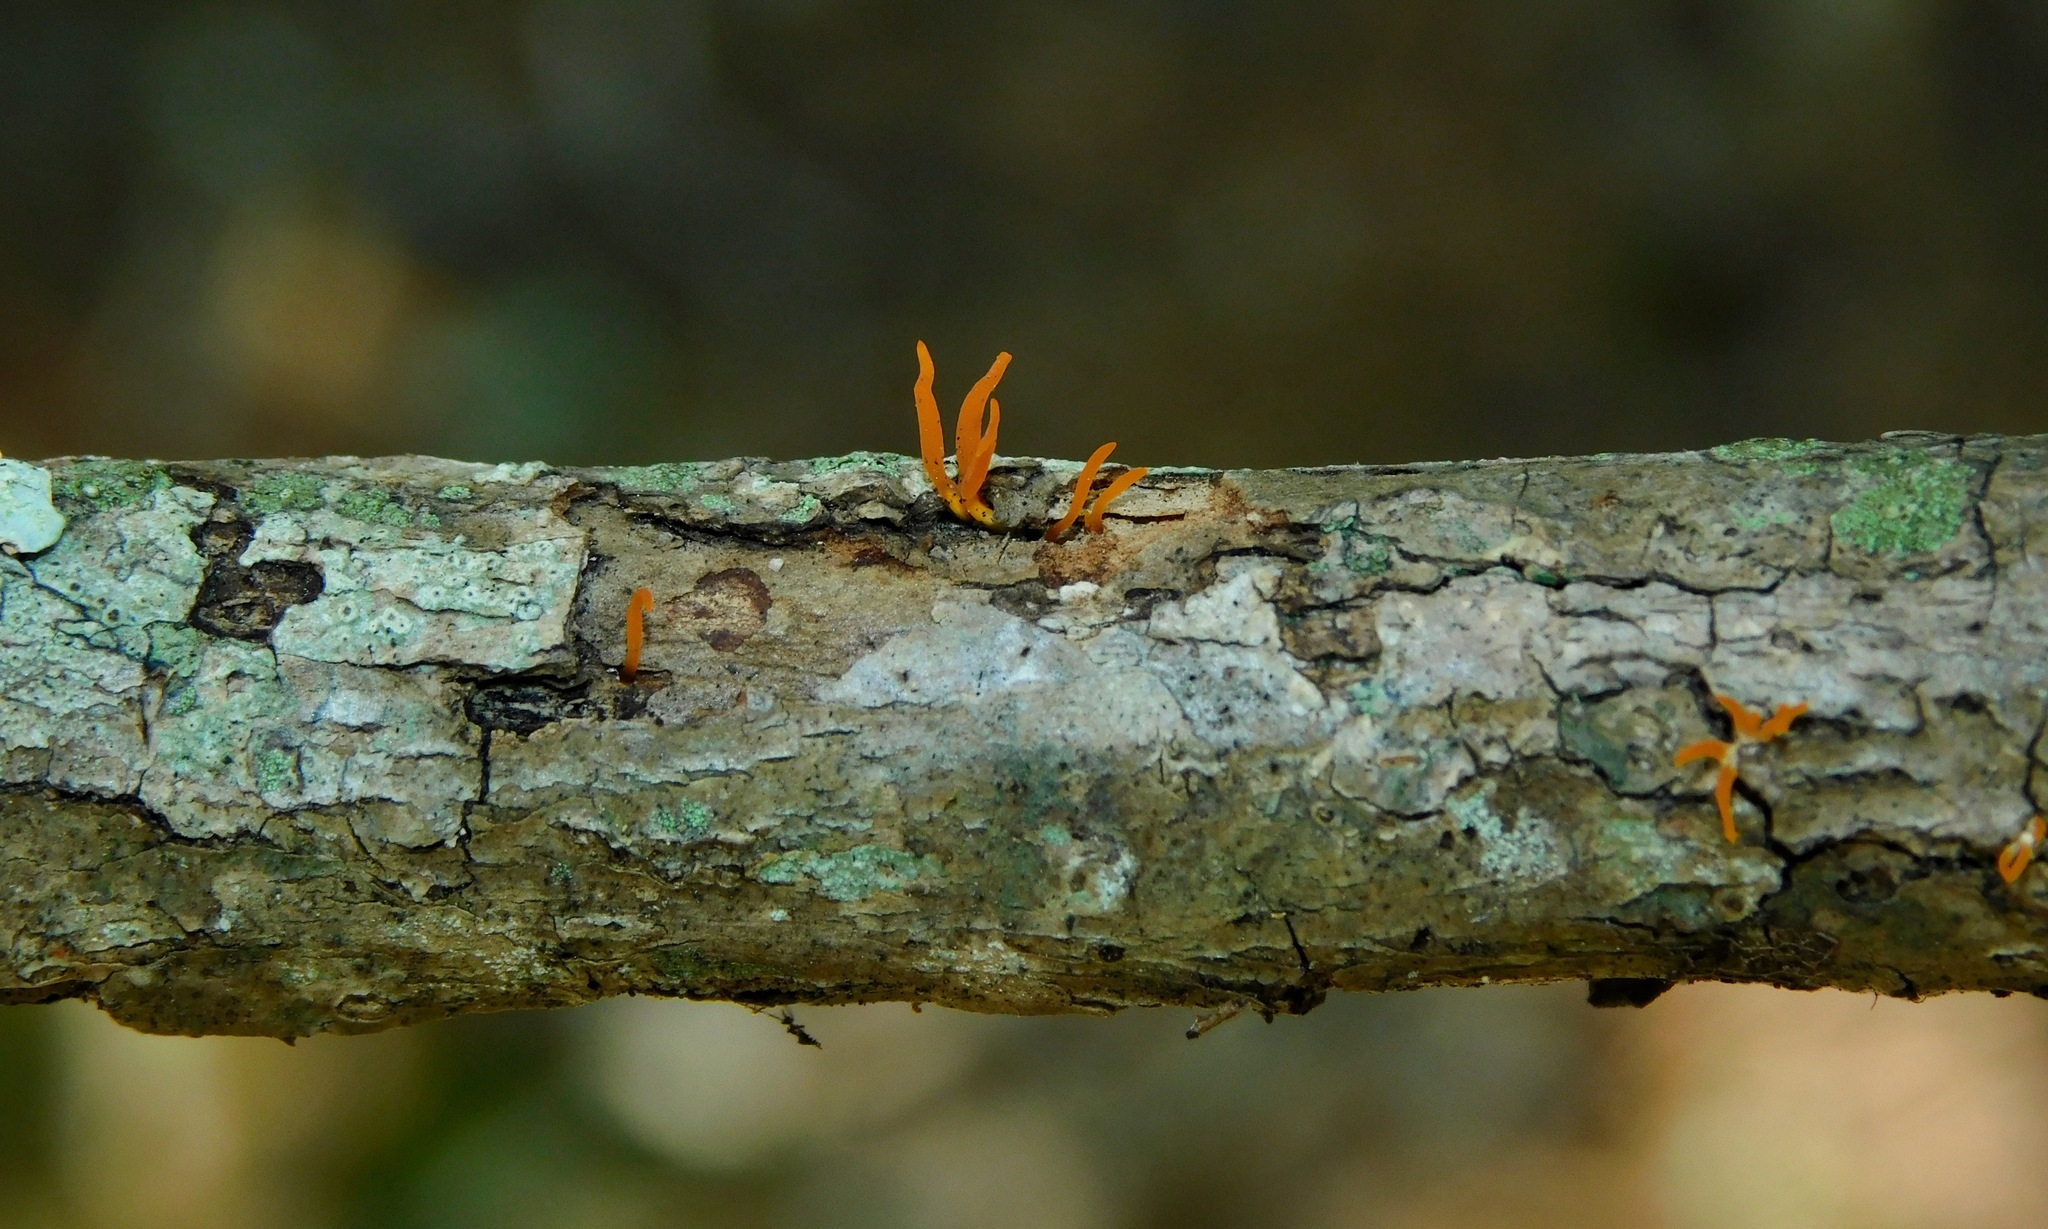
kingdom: Fungi
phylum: Basidiomycota
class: Dacrymycetes
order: Dacrymycetales
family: Dacrymycetaceae
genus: Calocera
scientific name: Calocera cornea
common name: Small stagshorn
